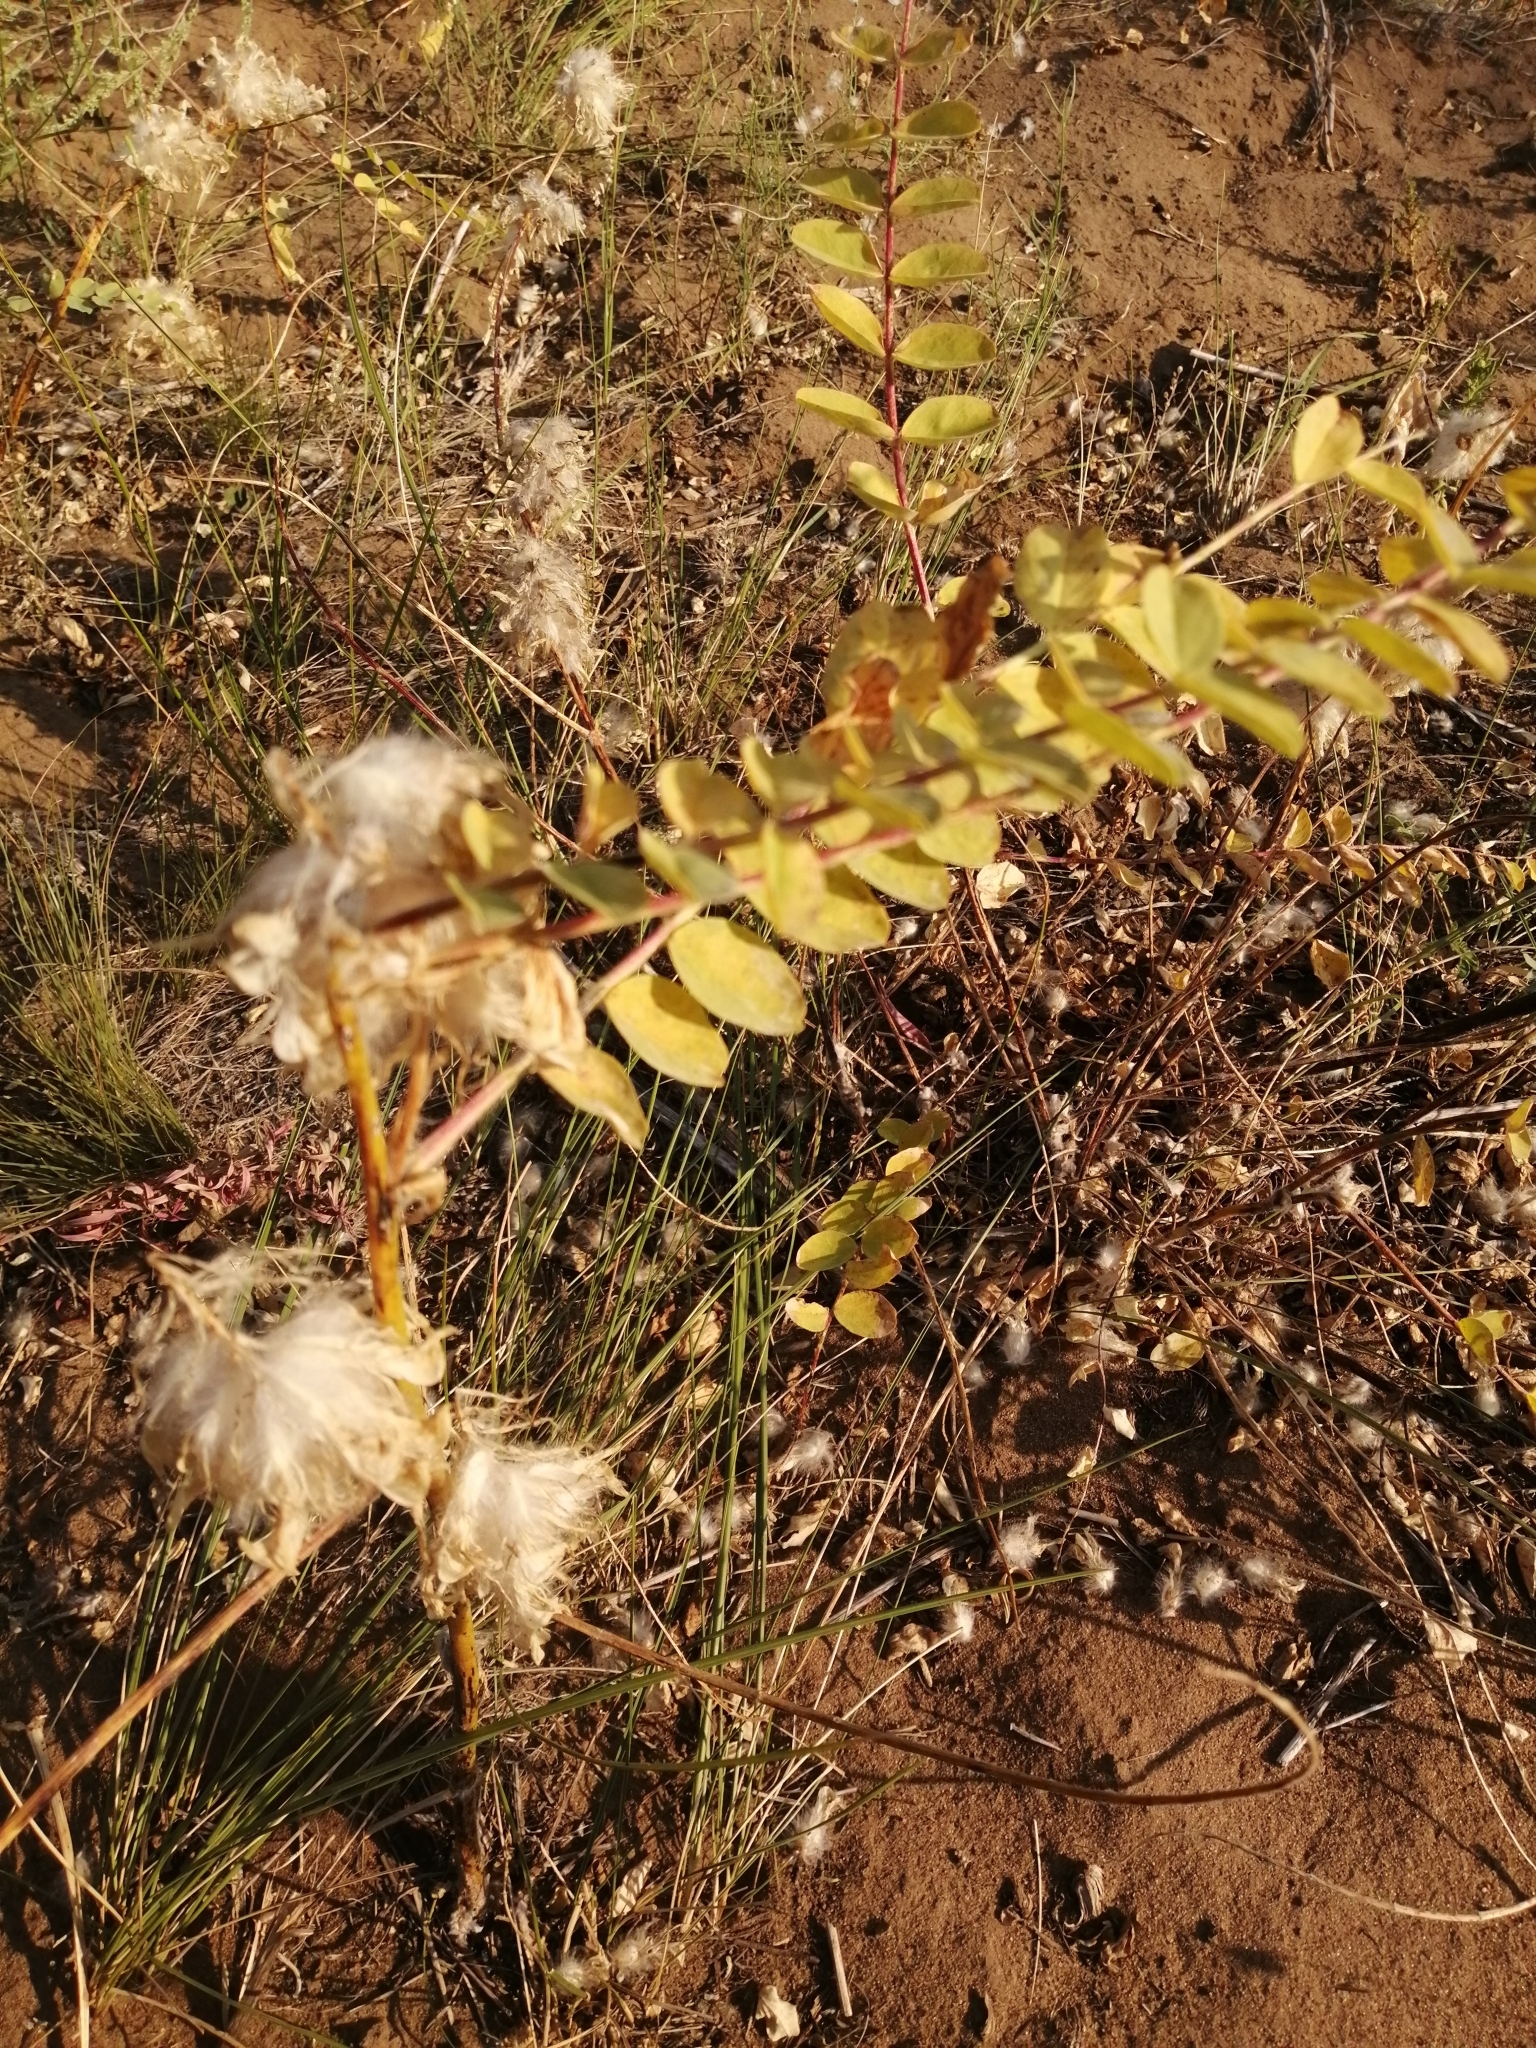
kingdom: Plantae
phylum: Tracheophyta
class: Magnoliopsida
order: Fabales
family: Fabaceae
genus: Astragalus
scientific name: Astragalus vulpinus
